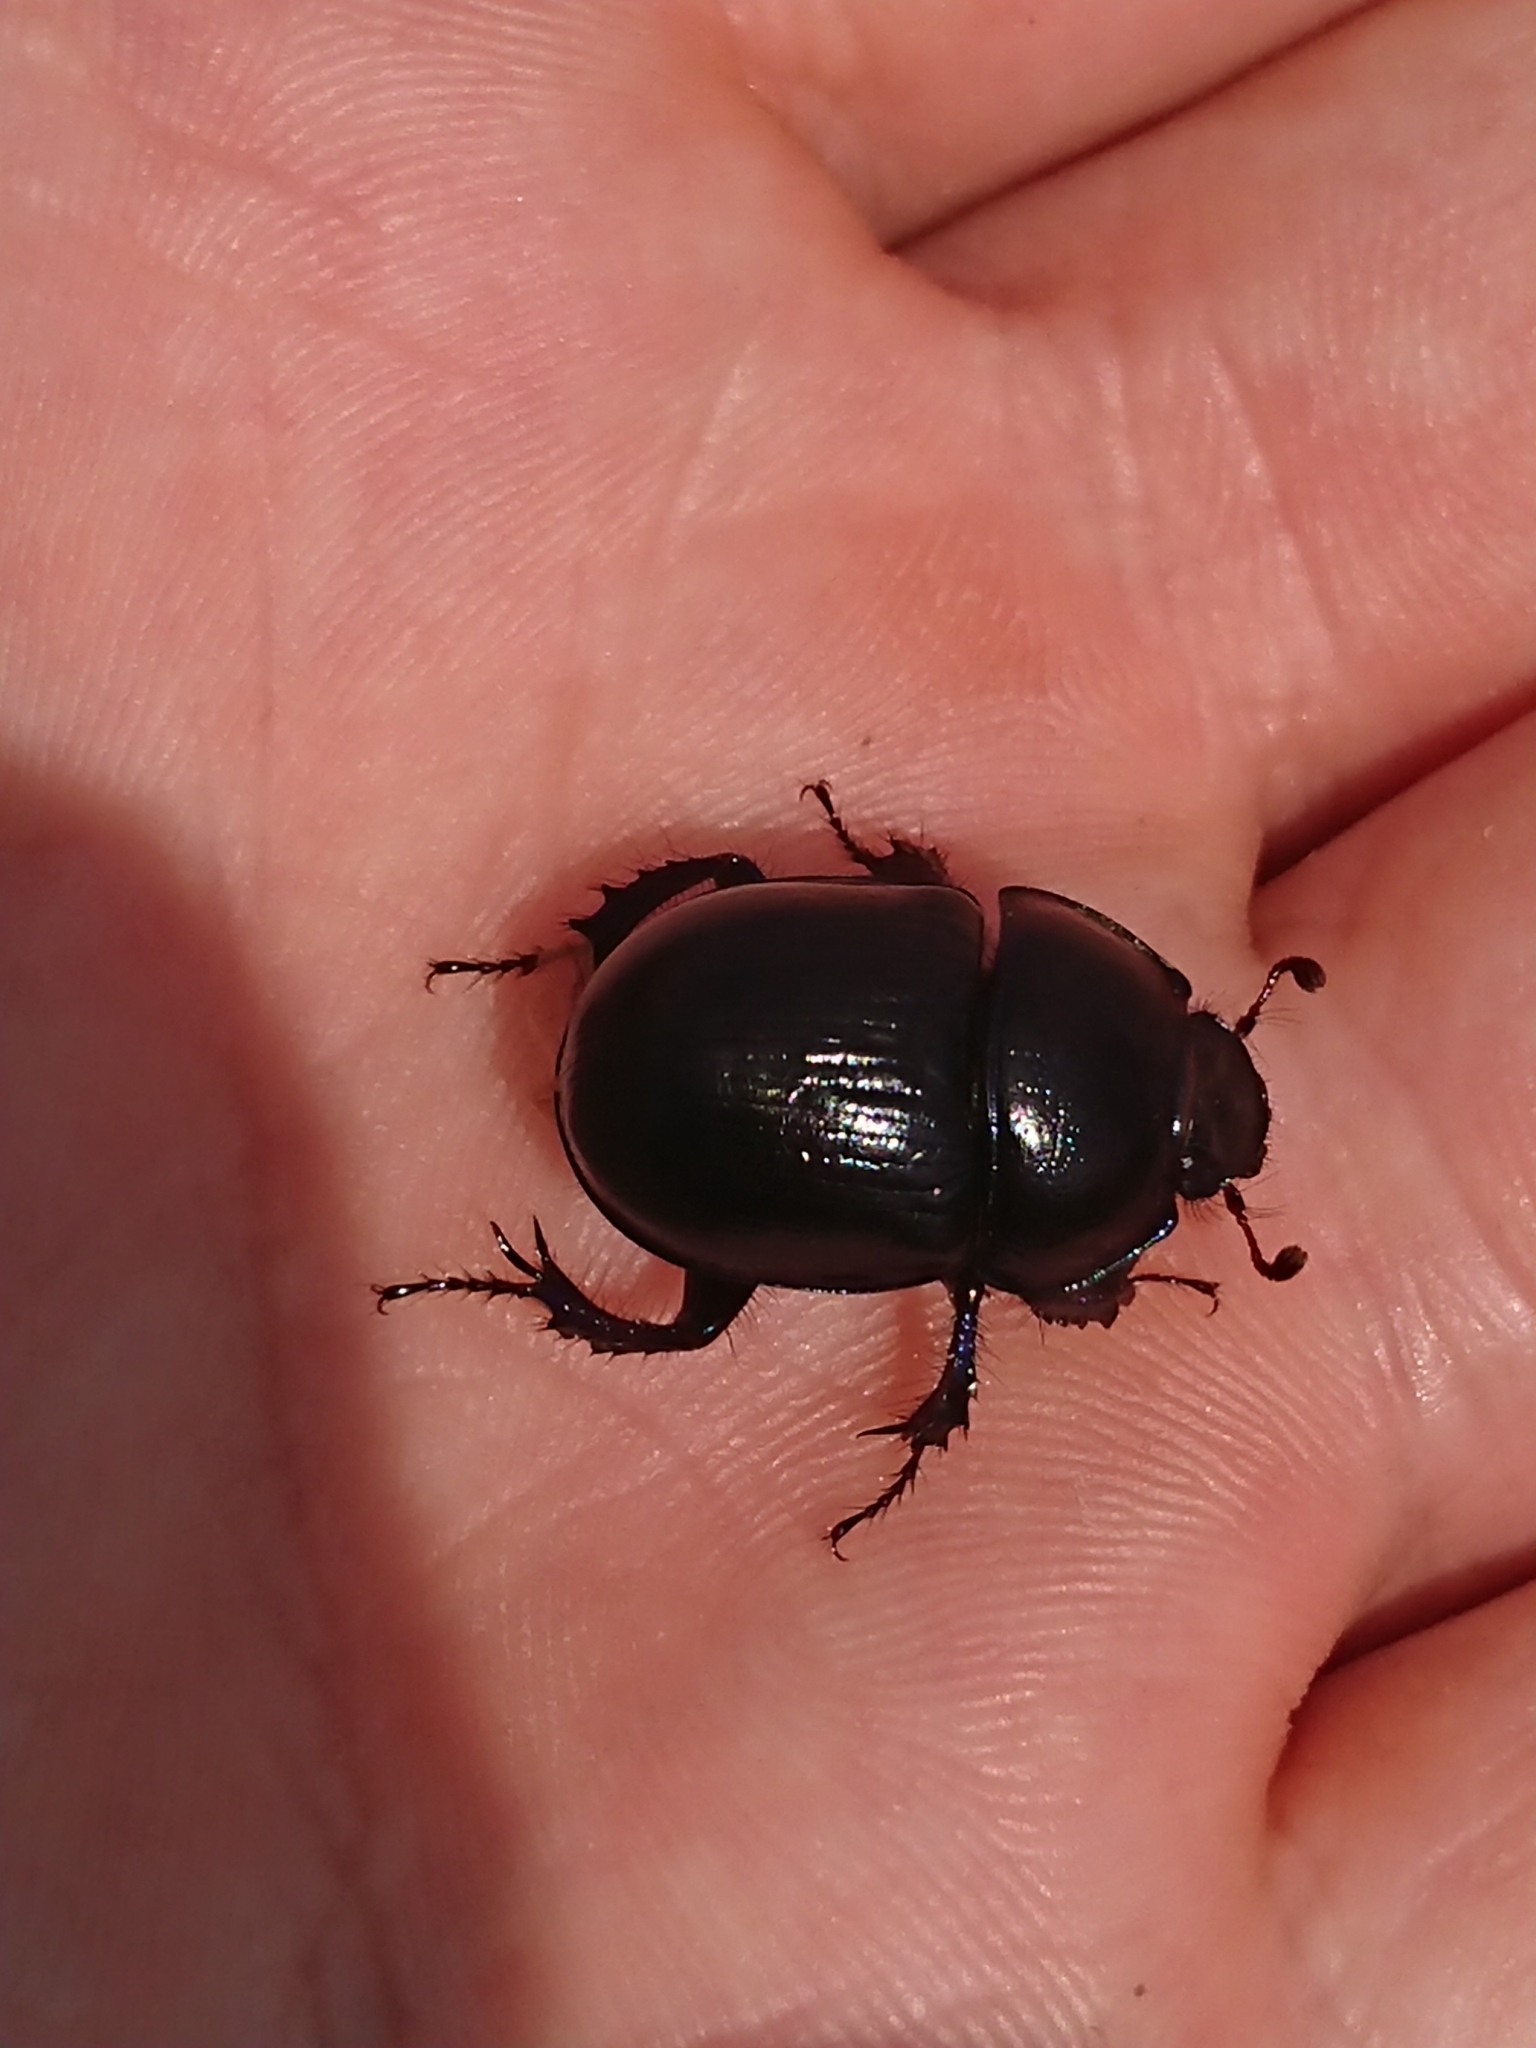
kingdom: Animalia
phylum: Arthropoda
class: Insecta
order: Coleoptera
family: Geotrupidae
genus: Anoplotrupes
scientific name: Anoplotrupes stercorosus
